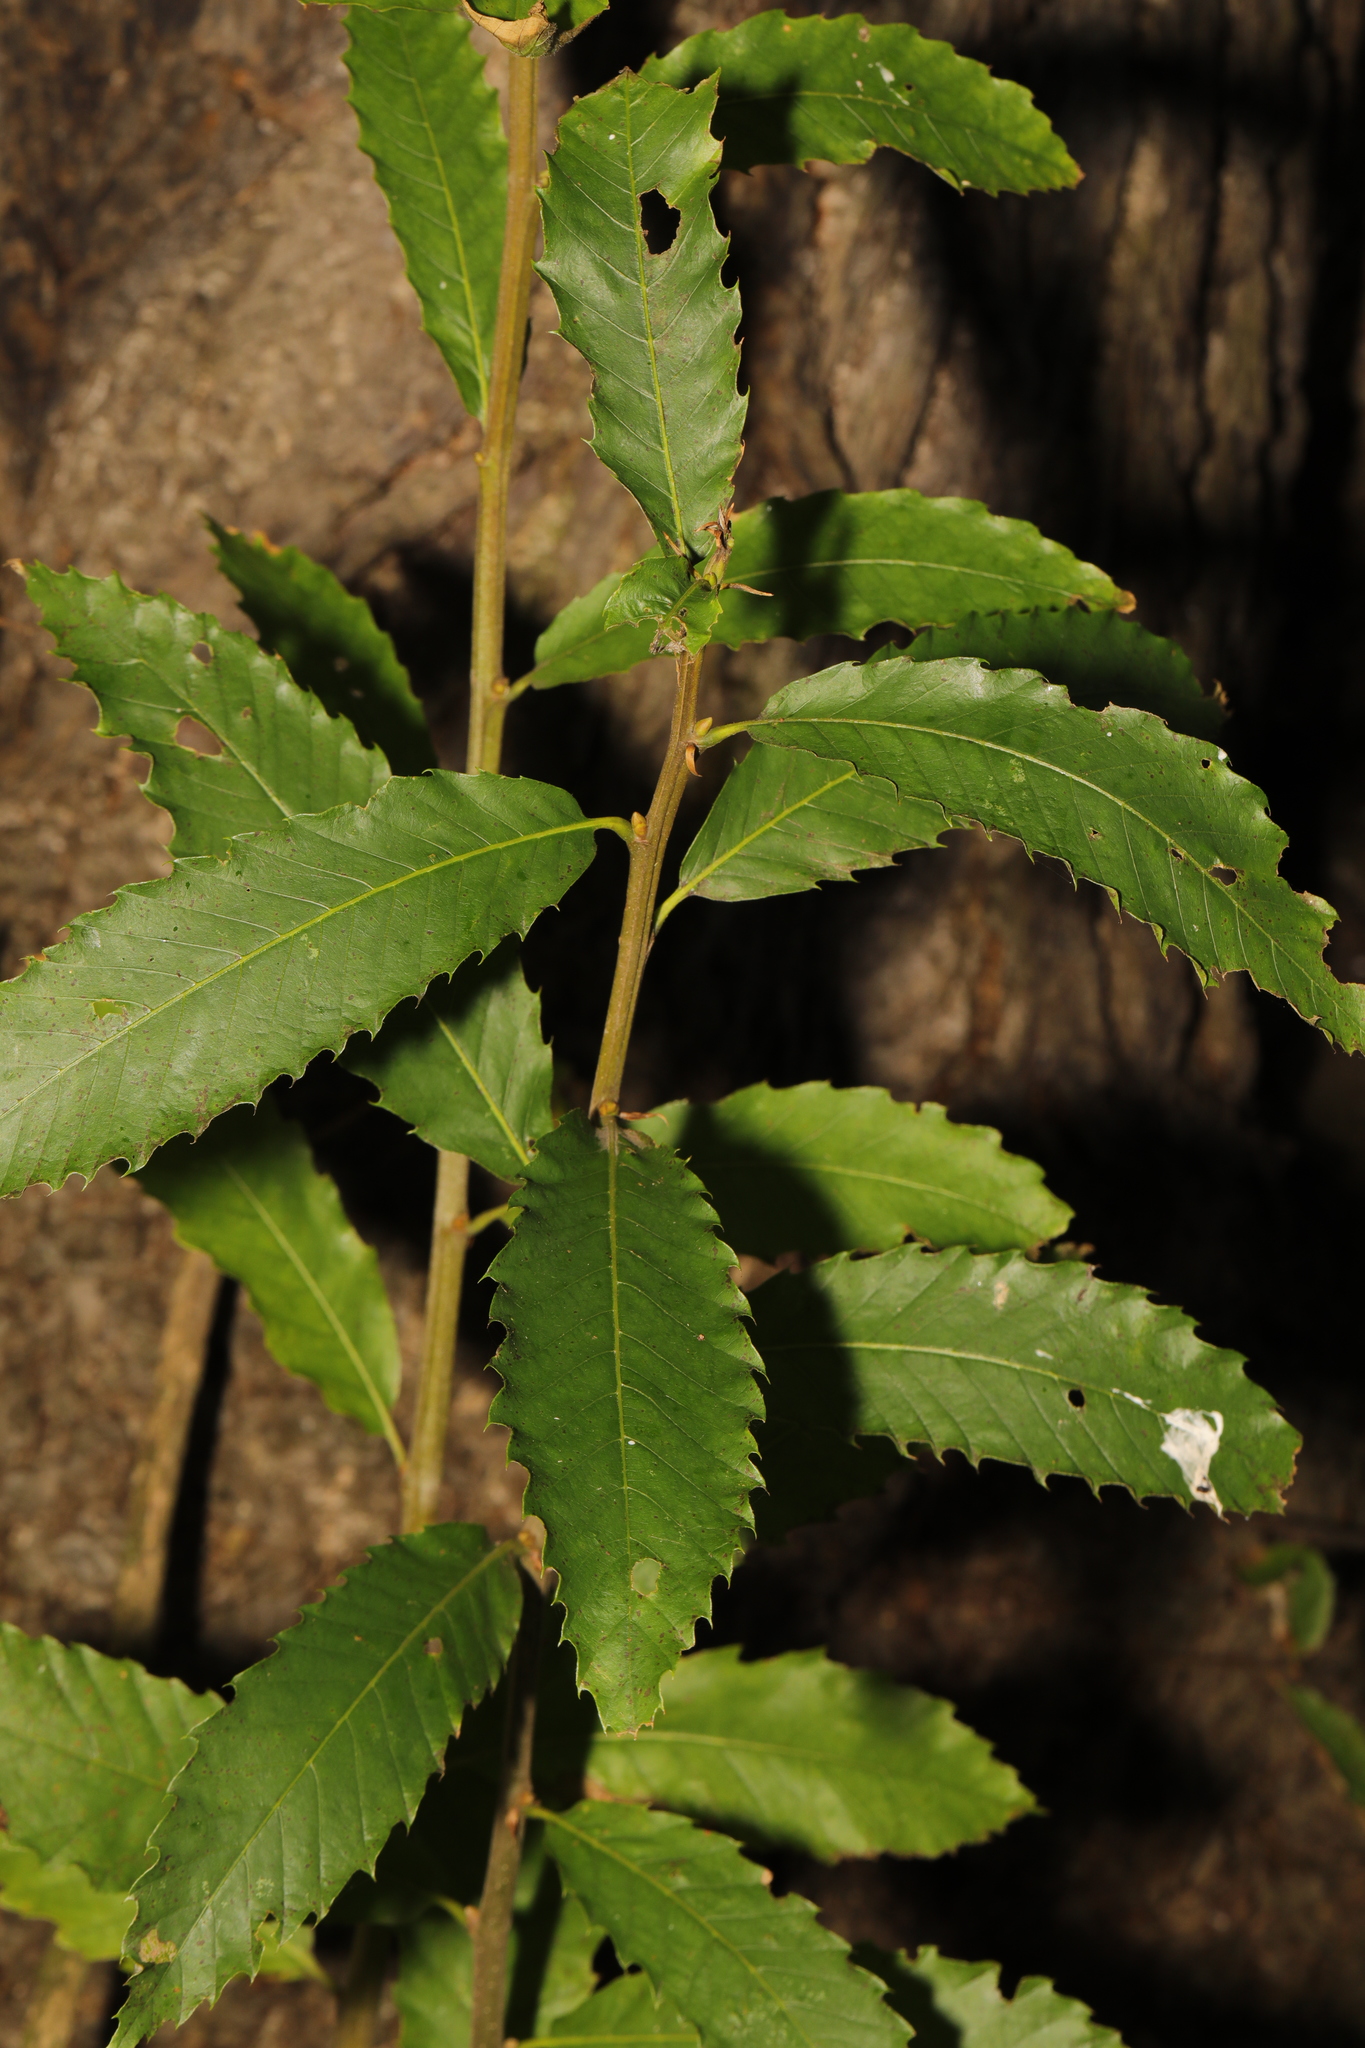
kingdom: Plantae
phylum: Tracheophyta
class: Magnoliopsida
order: Fagales
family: Fagaceae
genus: Castanea
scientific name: Castanea sativa
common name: Sweet chestnut
